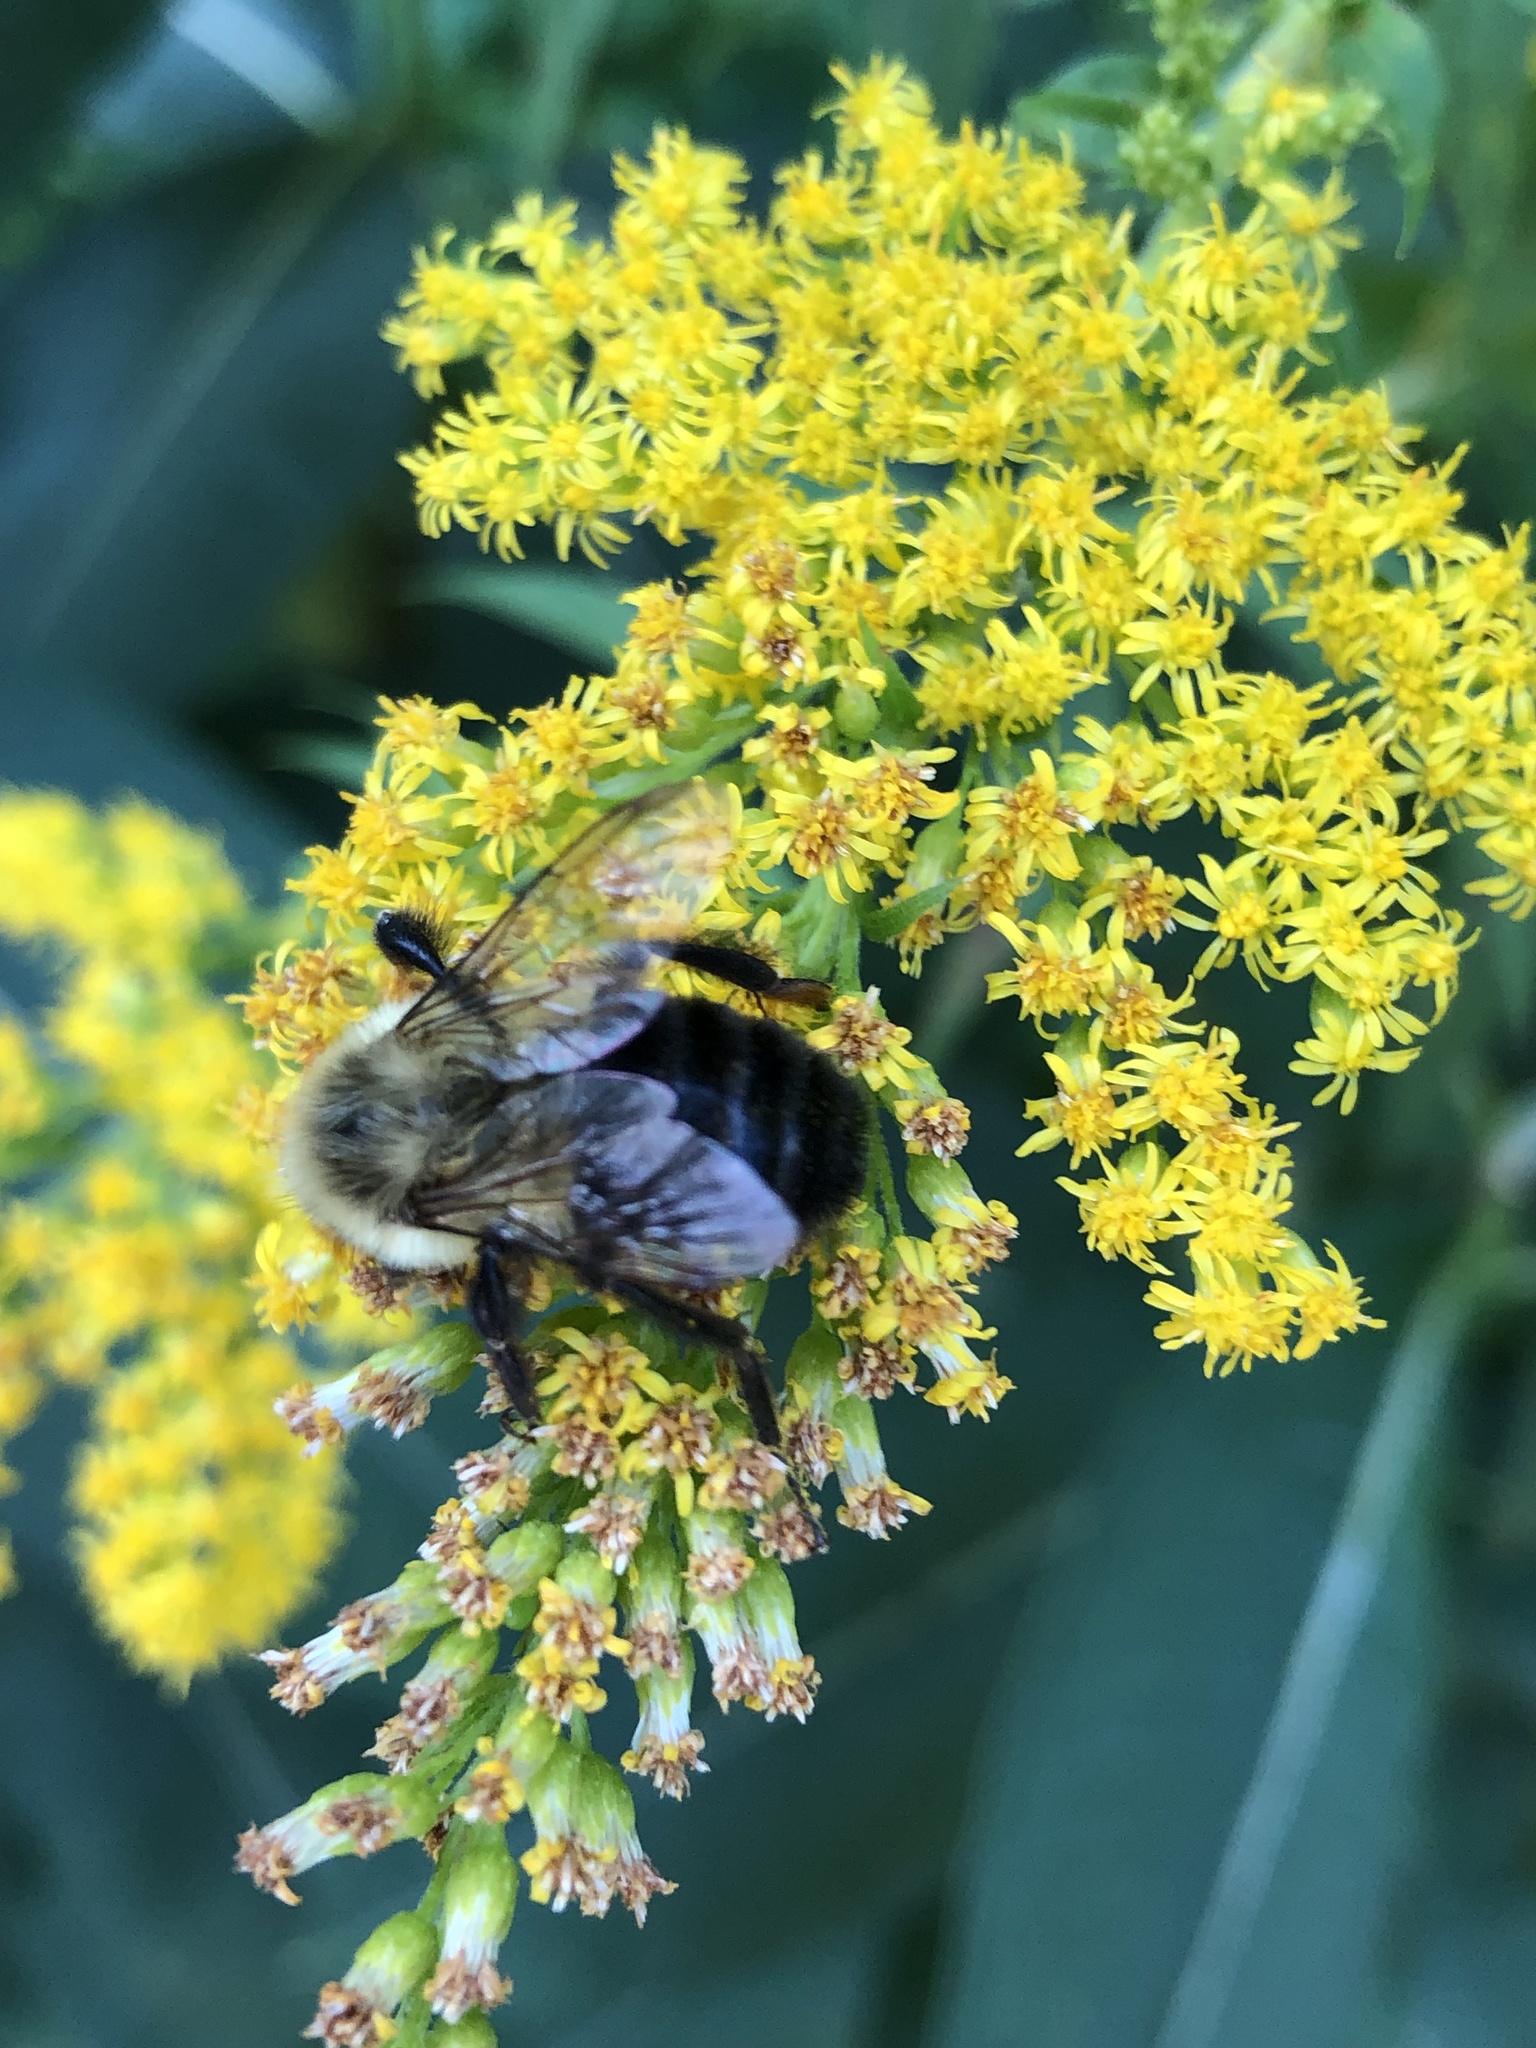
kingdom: Animalia
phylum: Arthropoda
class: Insecta
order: Hymenoptera
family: Apidae
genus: Bombus
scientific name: Bombus impatiens
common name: Common eastern bumble bee
